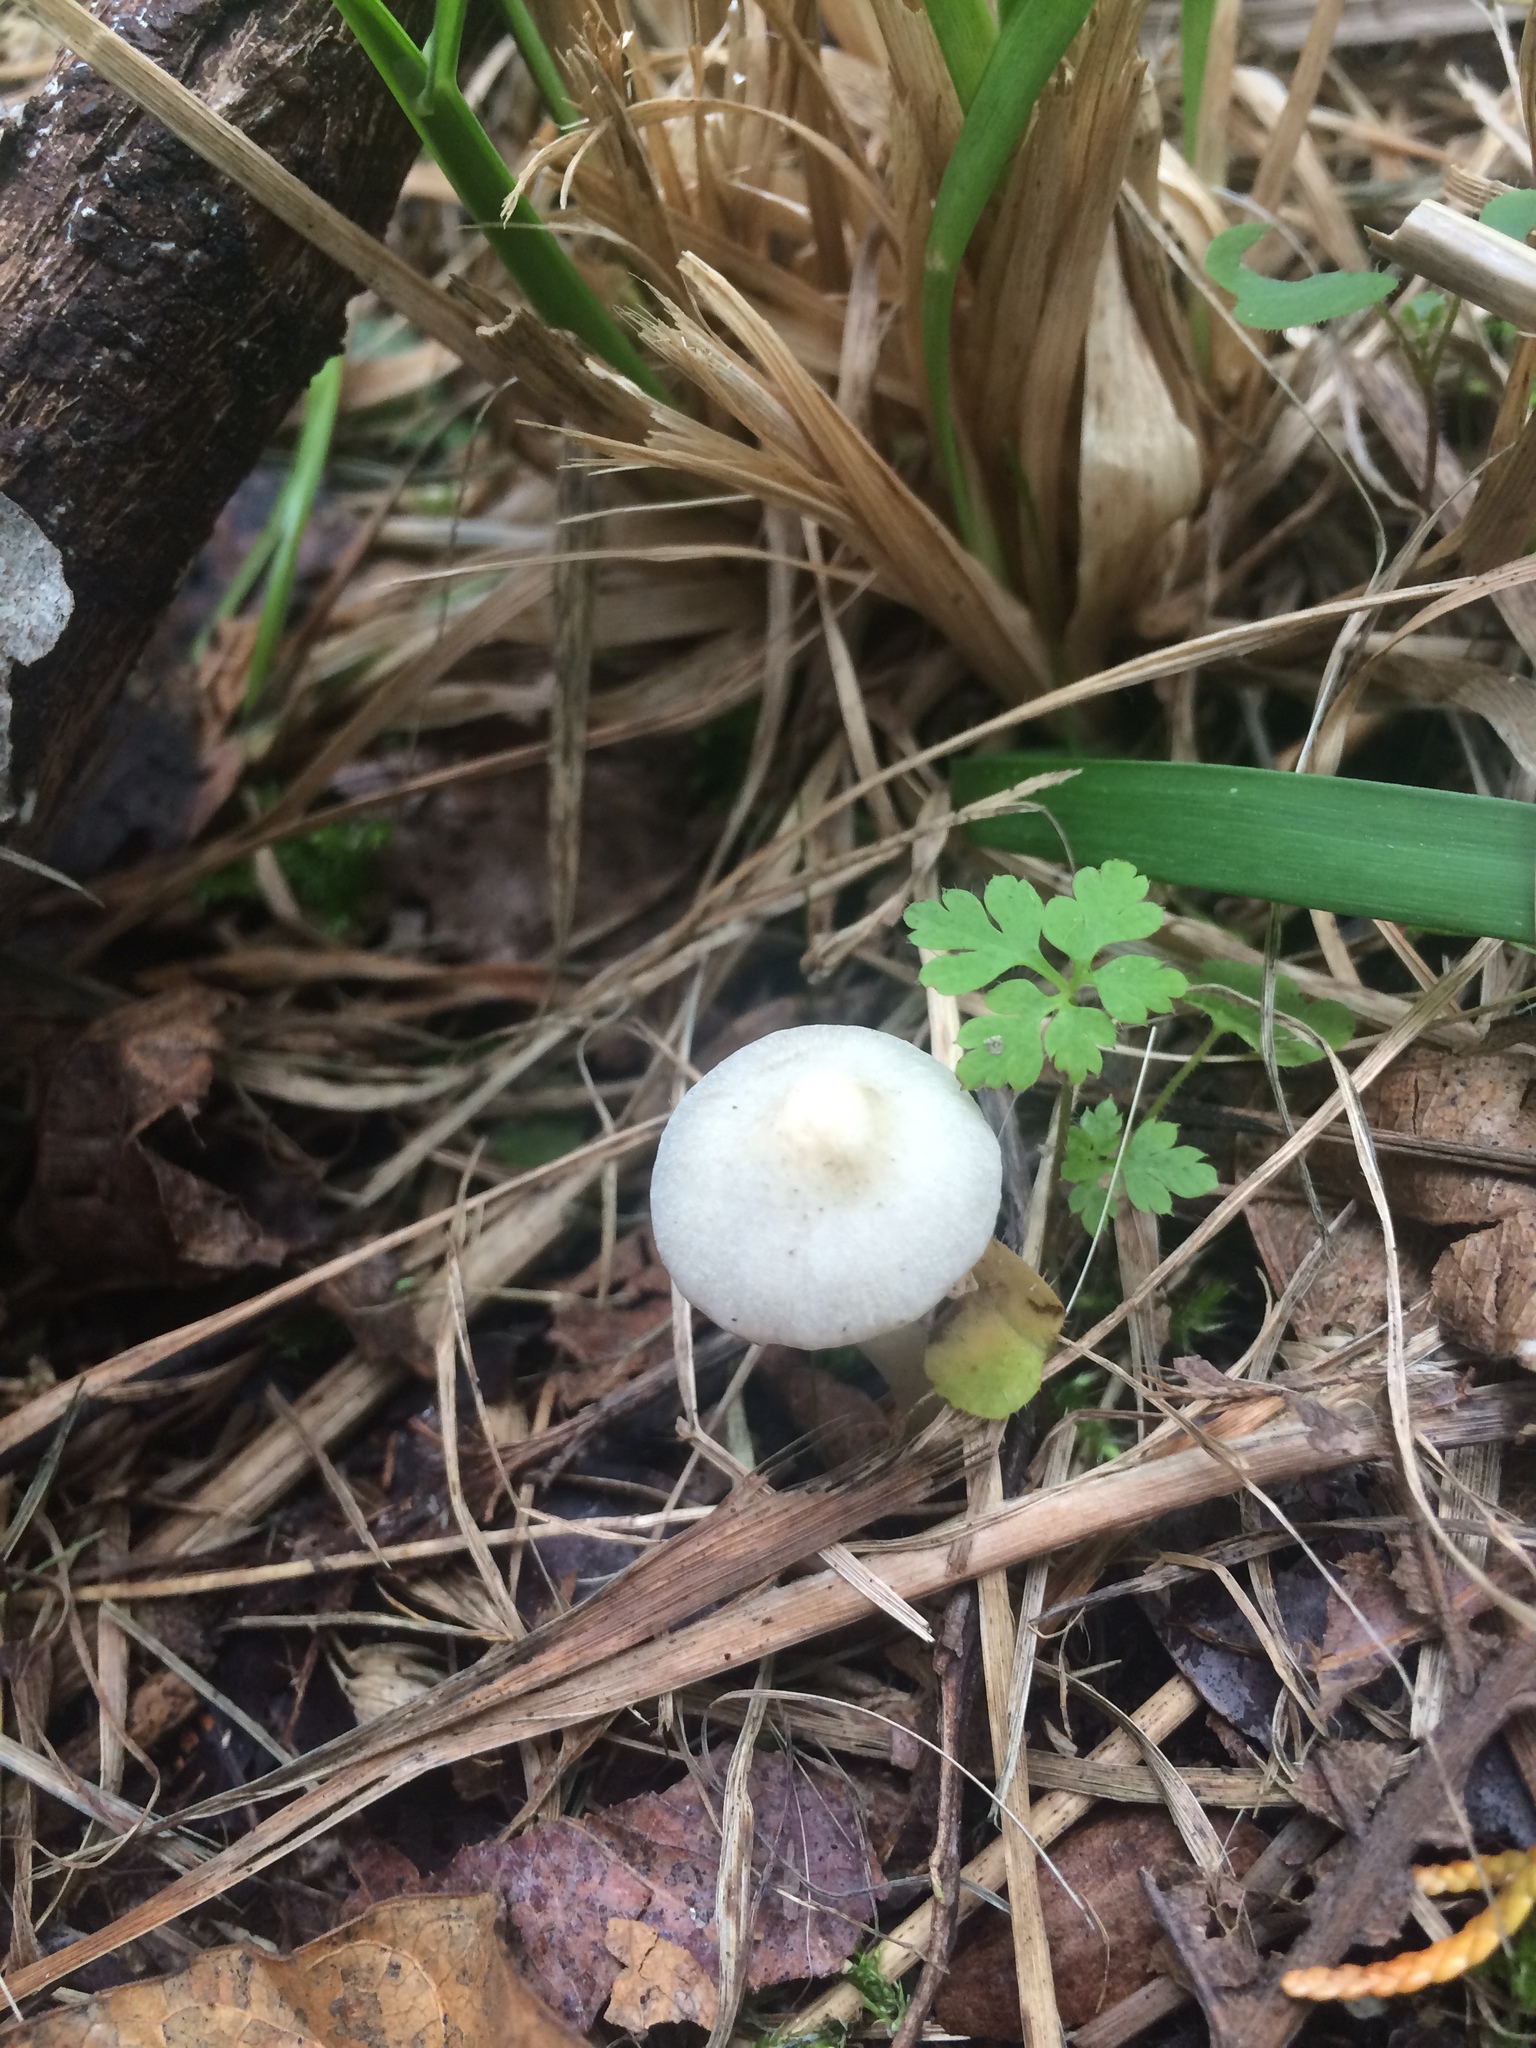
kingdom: Fungi
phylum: Basidiomycota
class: Agaricomycetes
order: Agaricales
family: Inocybaceae
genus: Inocybe
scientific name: Inocybe geophylla
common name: White fibrecap
